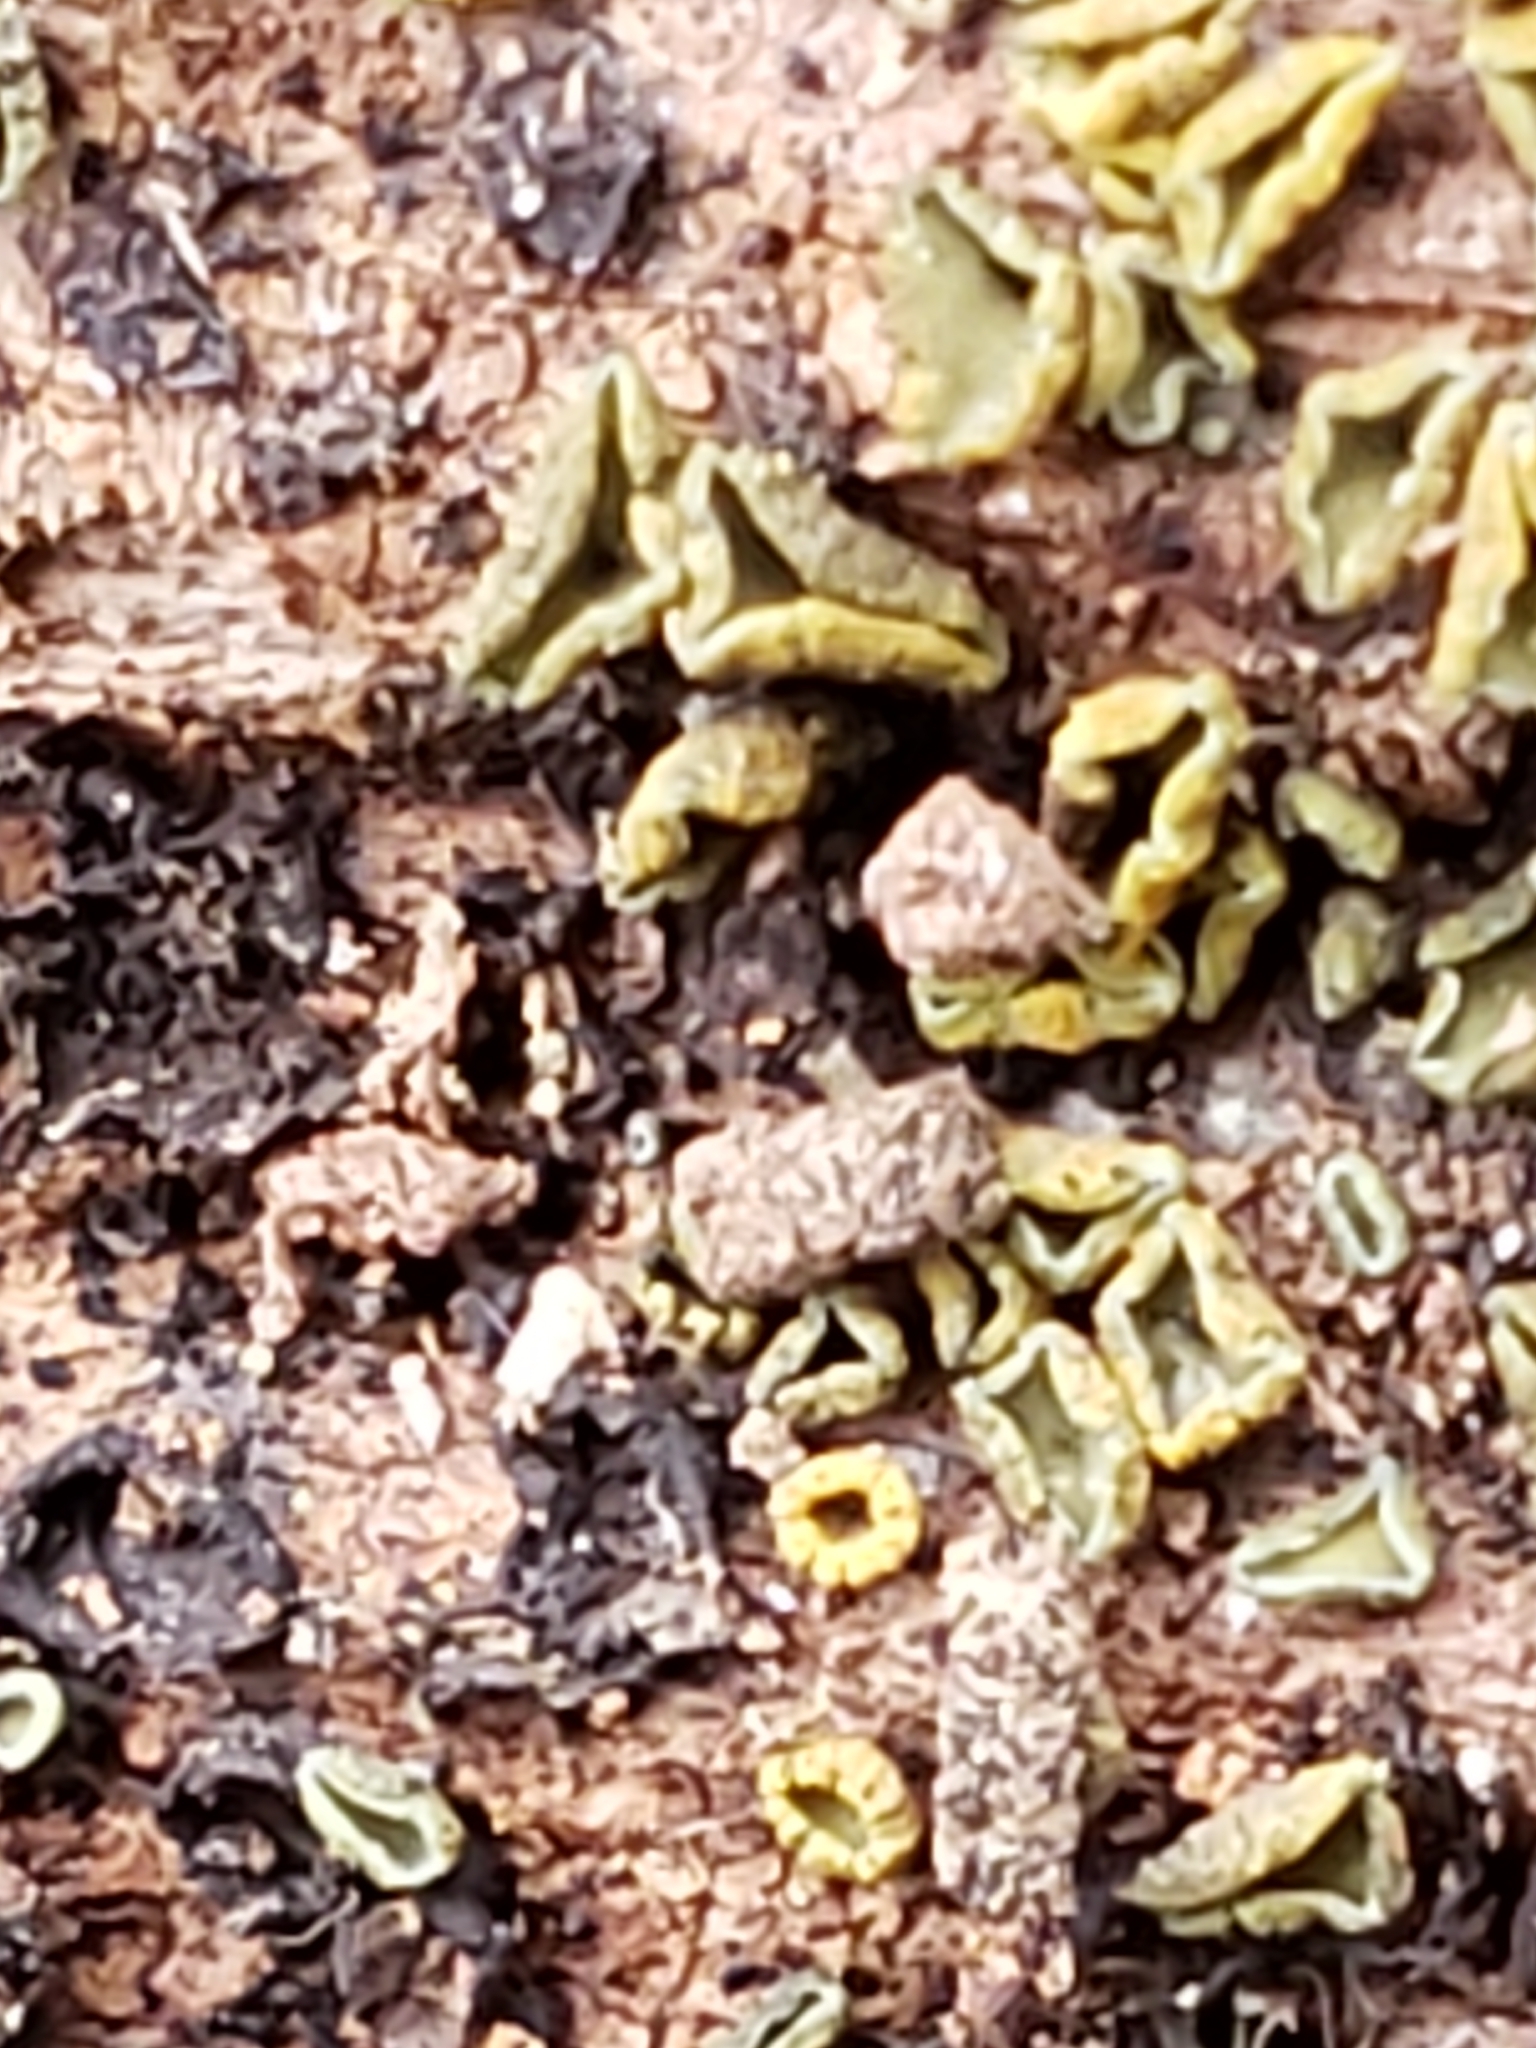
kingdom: Fungi
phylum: Ascomycota
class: Leotiomycetes
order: Helotiales
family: Chlorospleniaceae
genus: Chlorosplenium
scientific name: Chlorosplenium chlora
